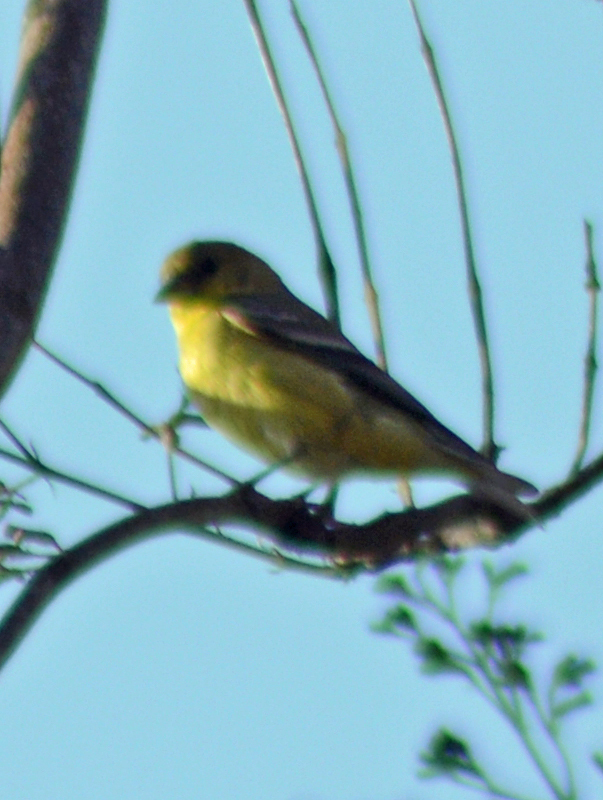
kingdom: Animalia
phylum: Chordata
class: Aves
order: Passeriformes
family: Fringillidae
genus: Spinus
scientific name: Spinus psaltria
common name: Lesser goldfinch
